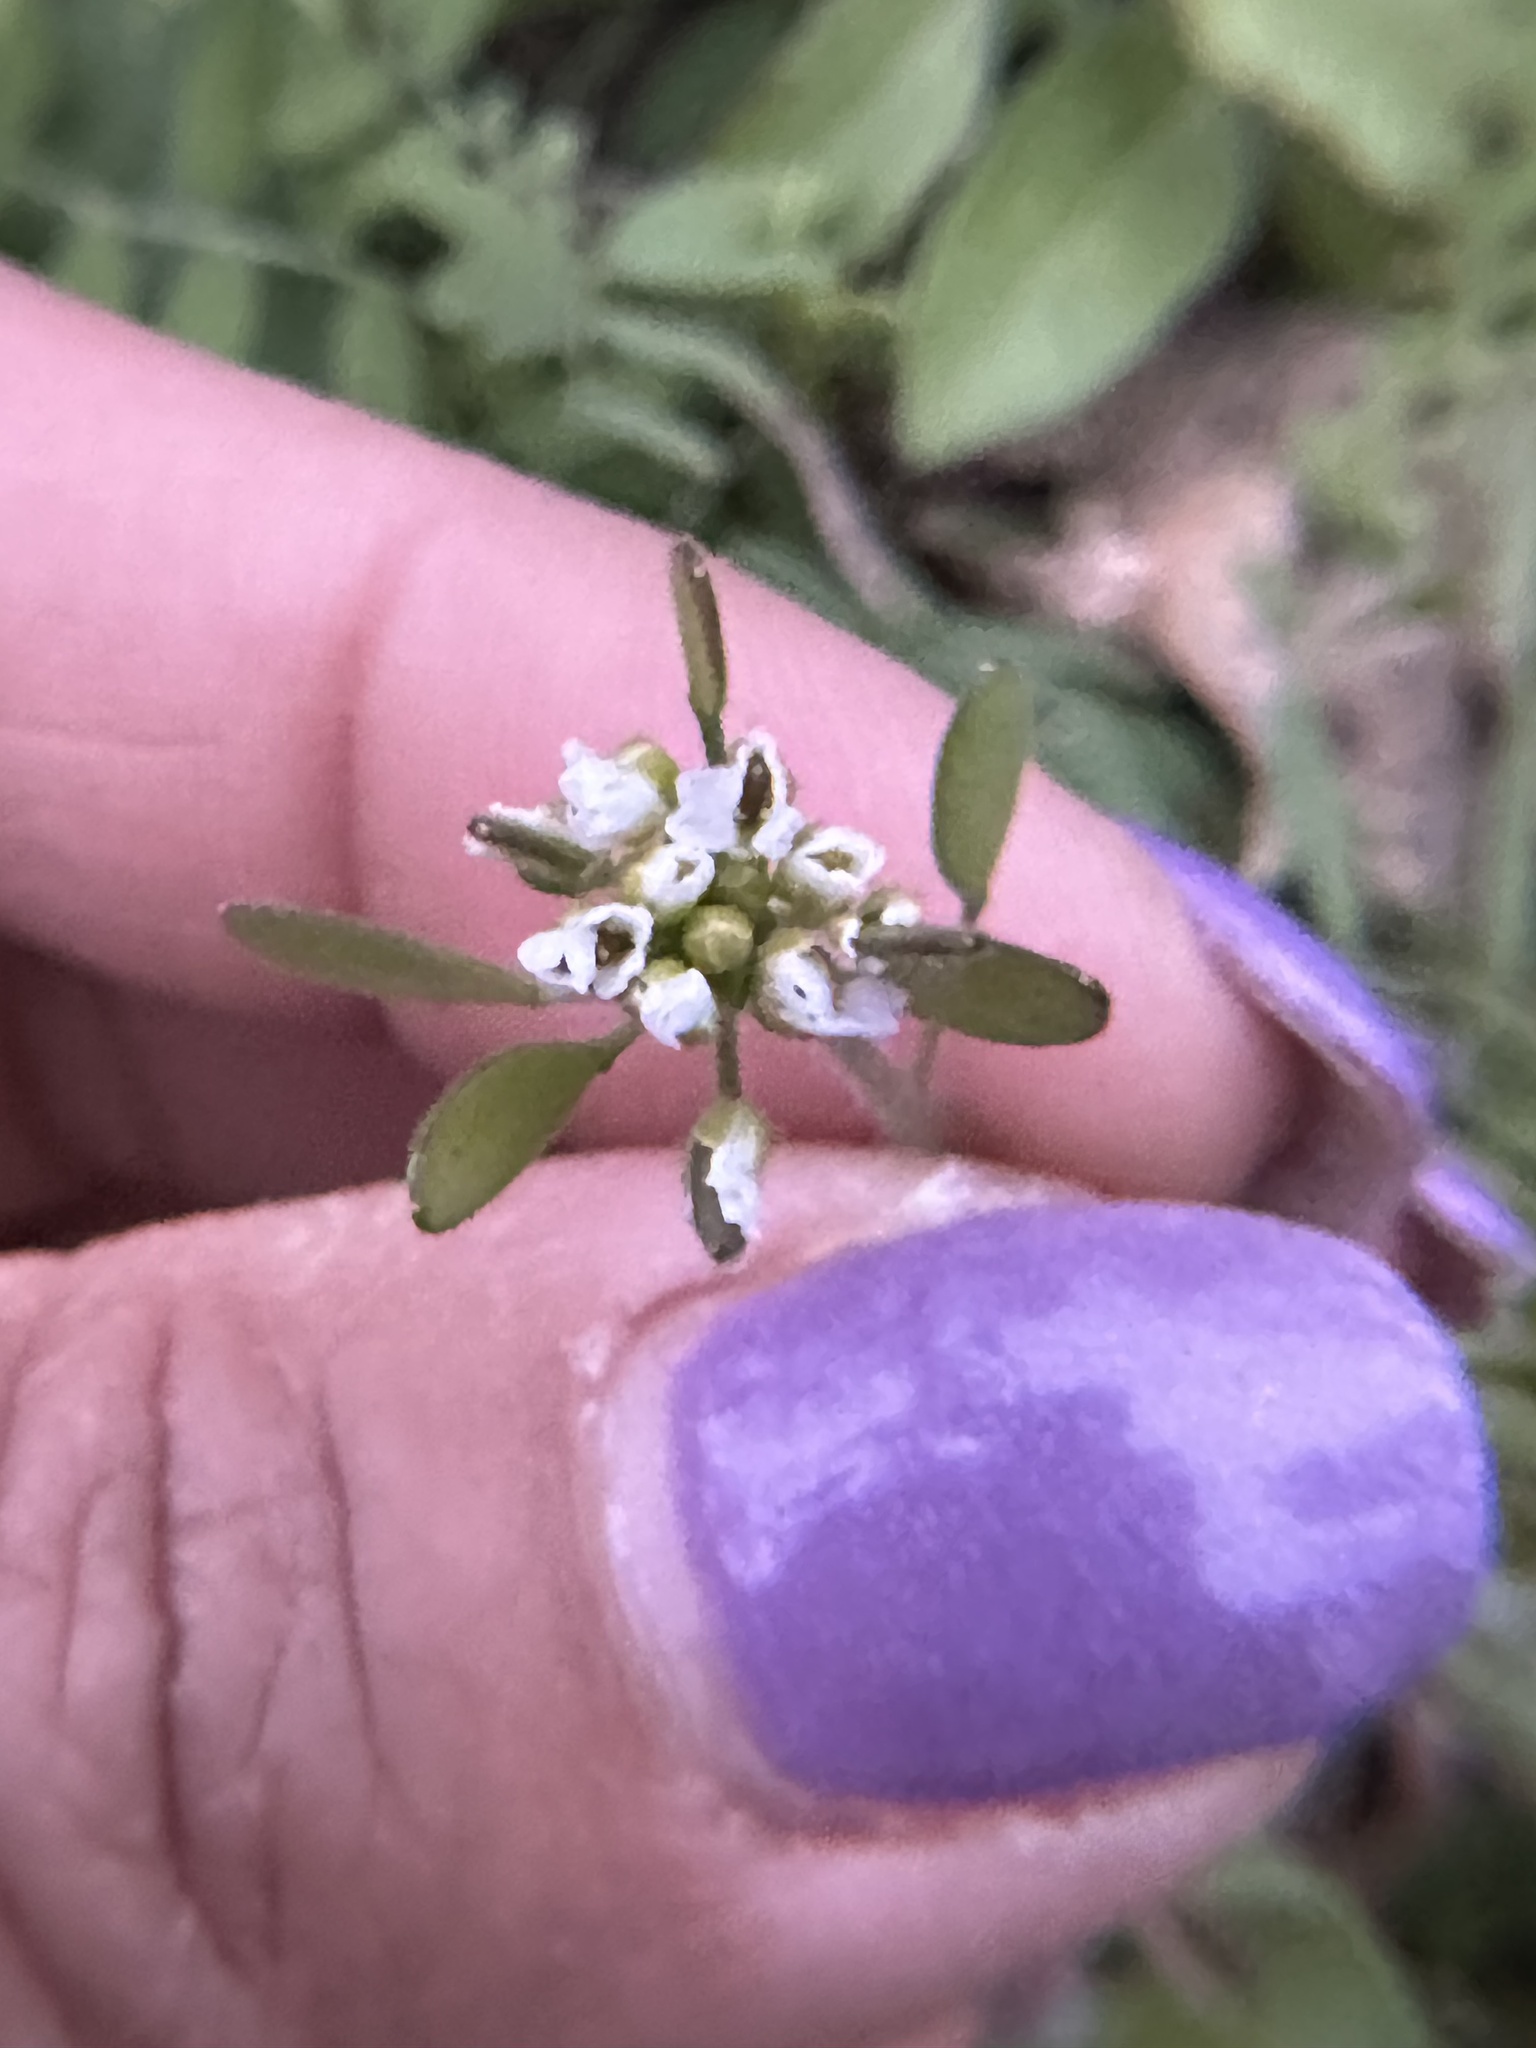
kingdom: Plantae
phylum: Tracheophyta
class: Magnoliopsida
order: Brassicales
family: Brassicaceae
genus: Tomostima
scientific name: Tomostima platycarpa
